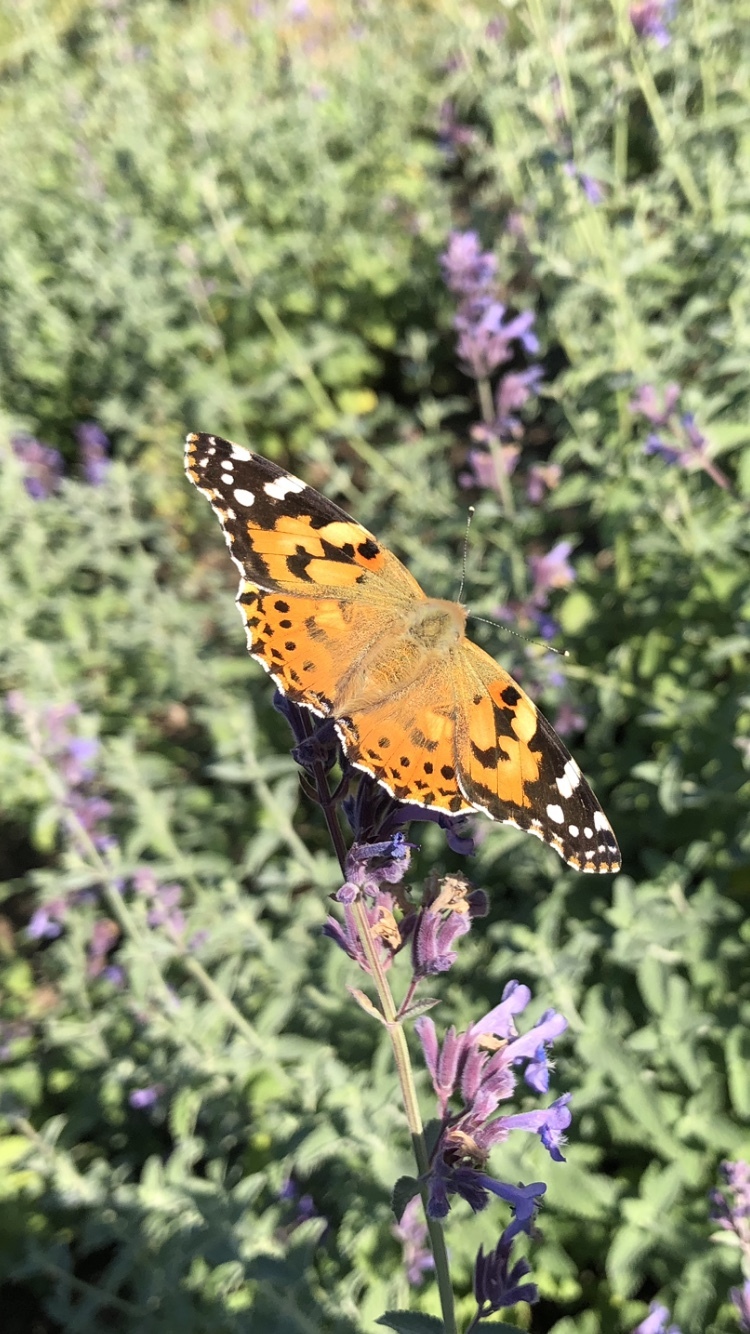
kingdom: Animalia
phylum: Arthropoda
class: Insecta
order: Lepidoptera
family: Nymphalidae
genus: Vanessa
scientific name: Vanessa cardui
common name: Painted lady
